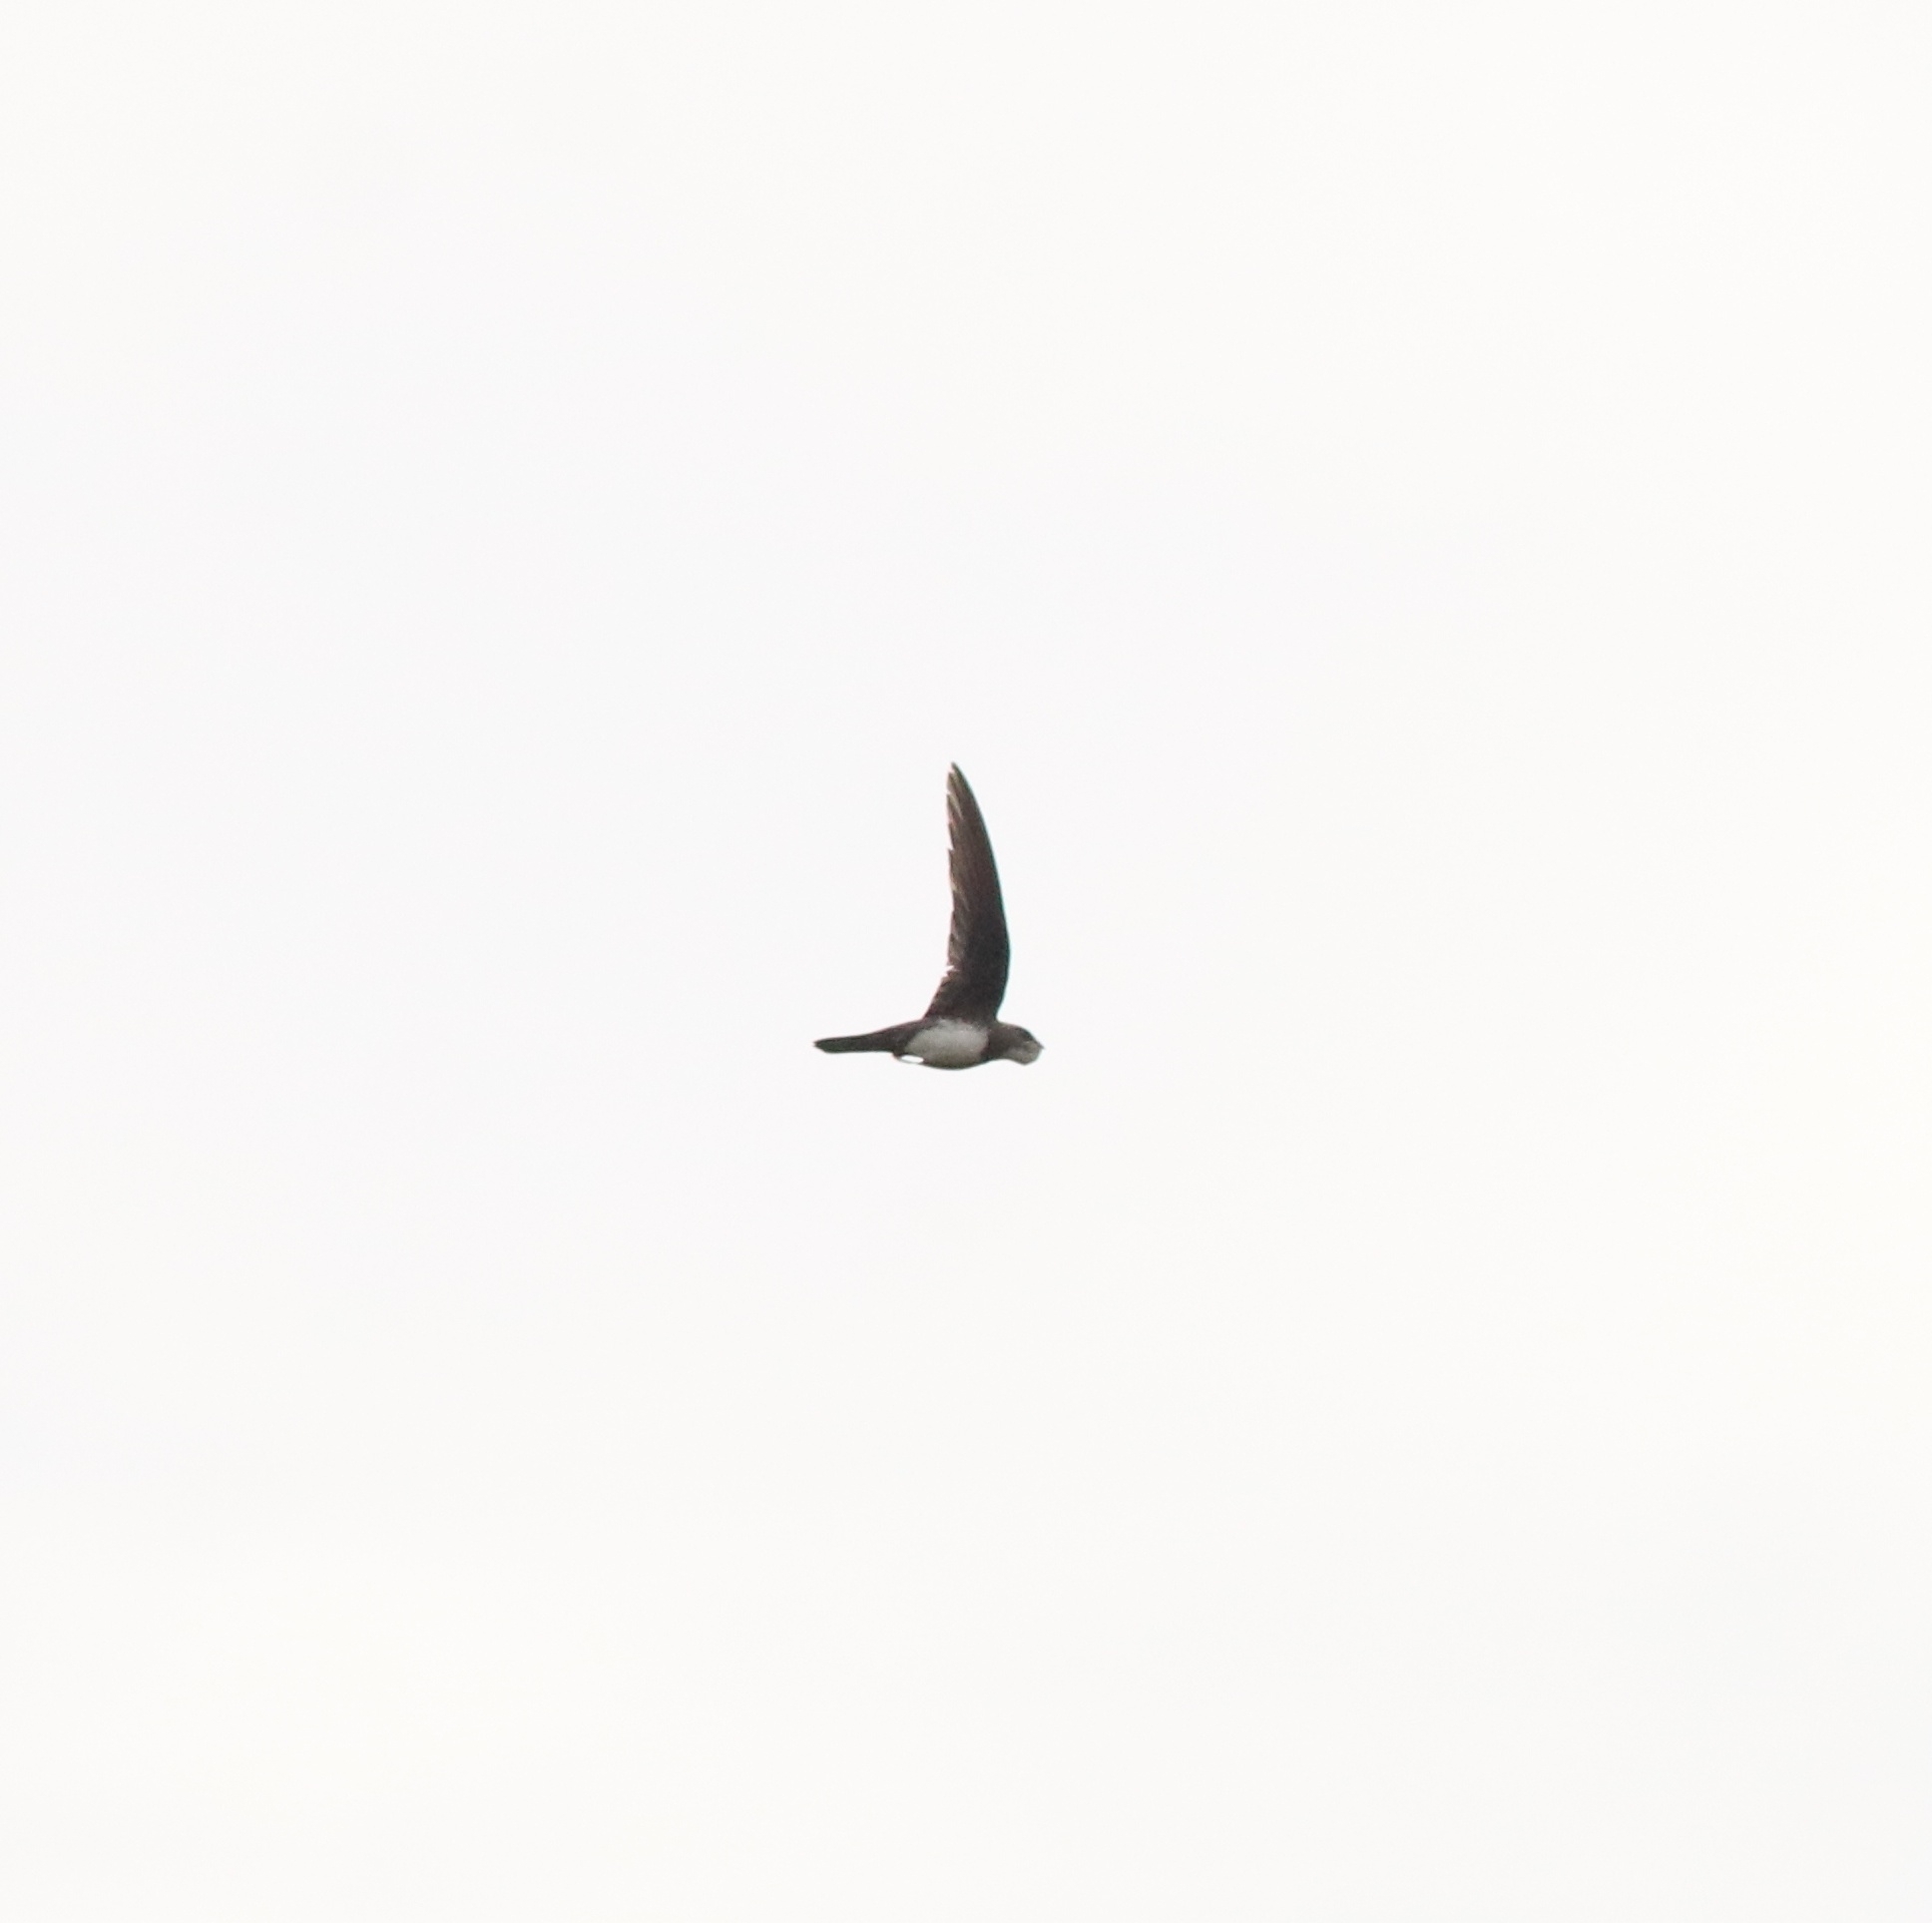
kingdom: Animalia
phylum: Chordata
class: Aves
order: Apodiformes
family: Apodidae
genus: Tachymarptis
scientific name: Tachymarptis melba
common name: Alpine swift
